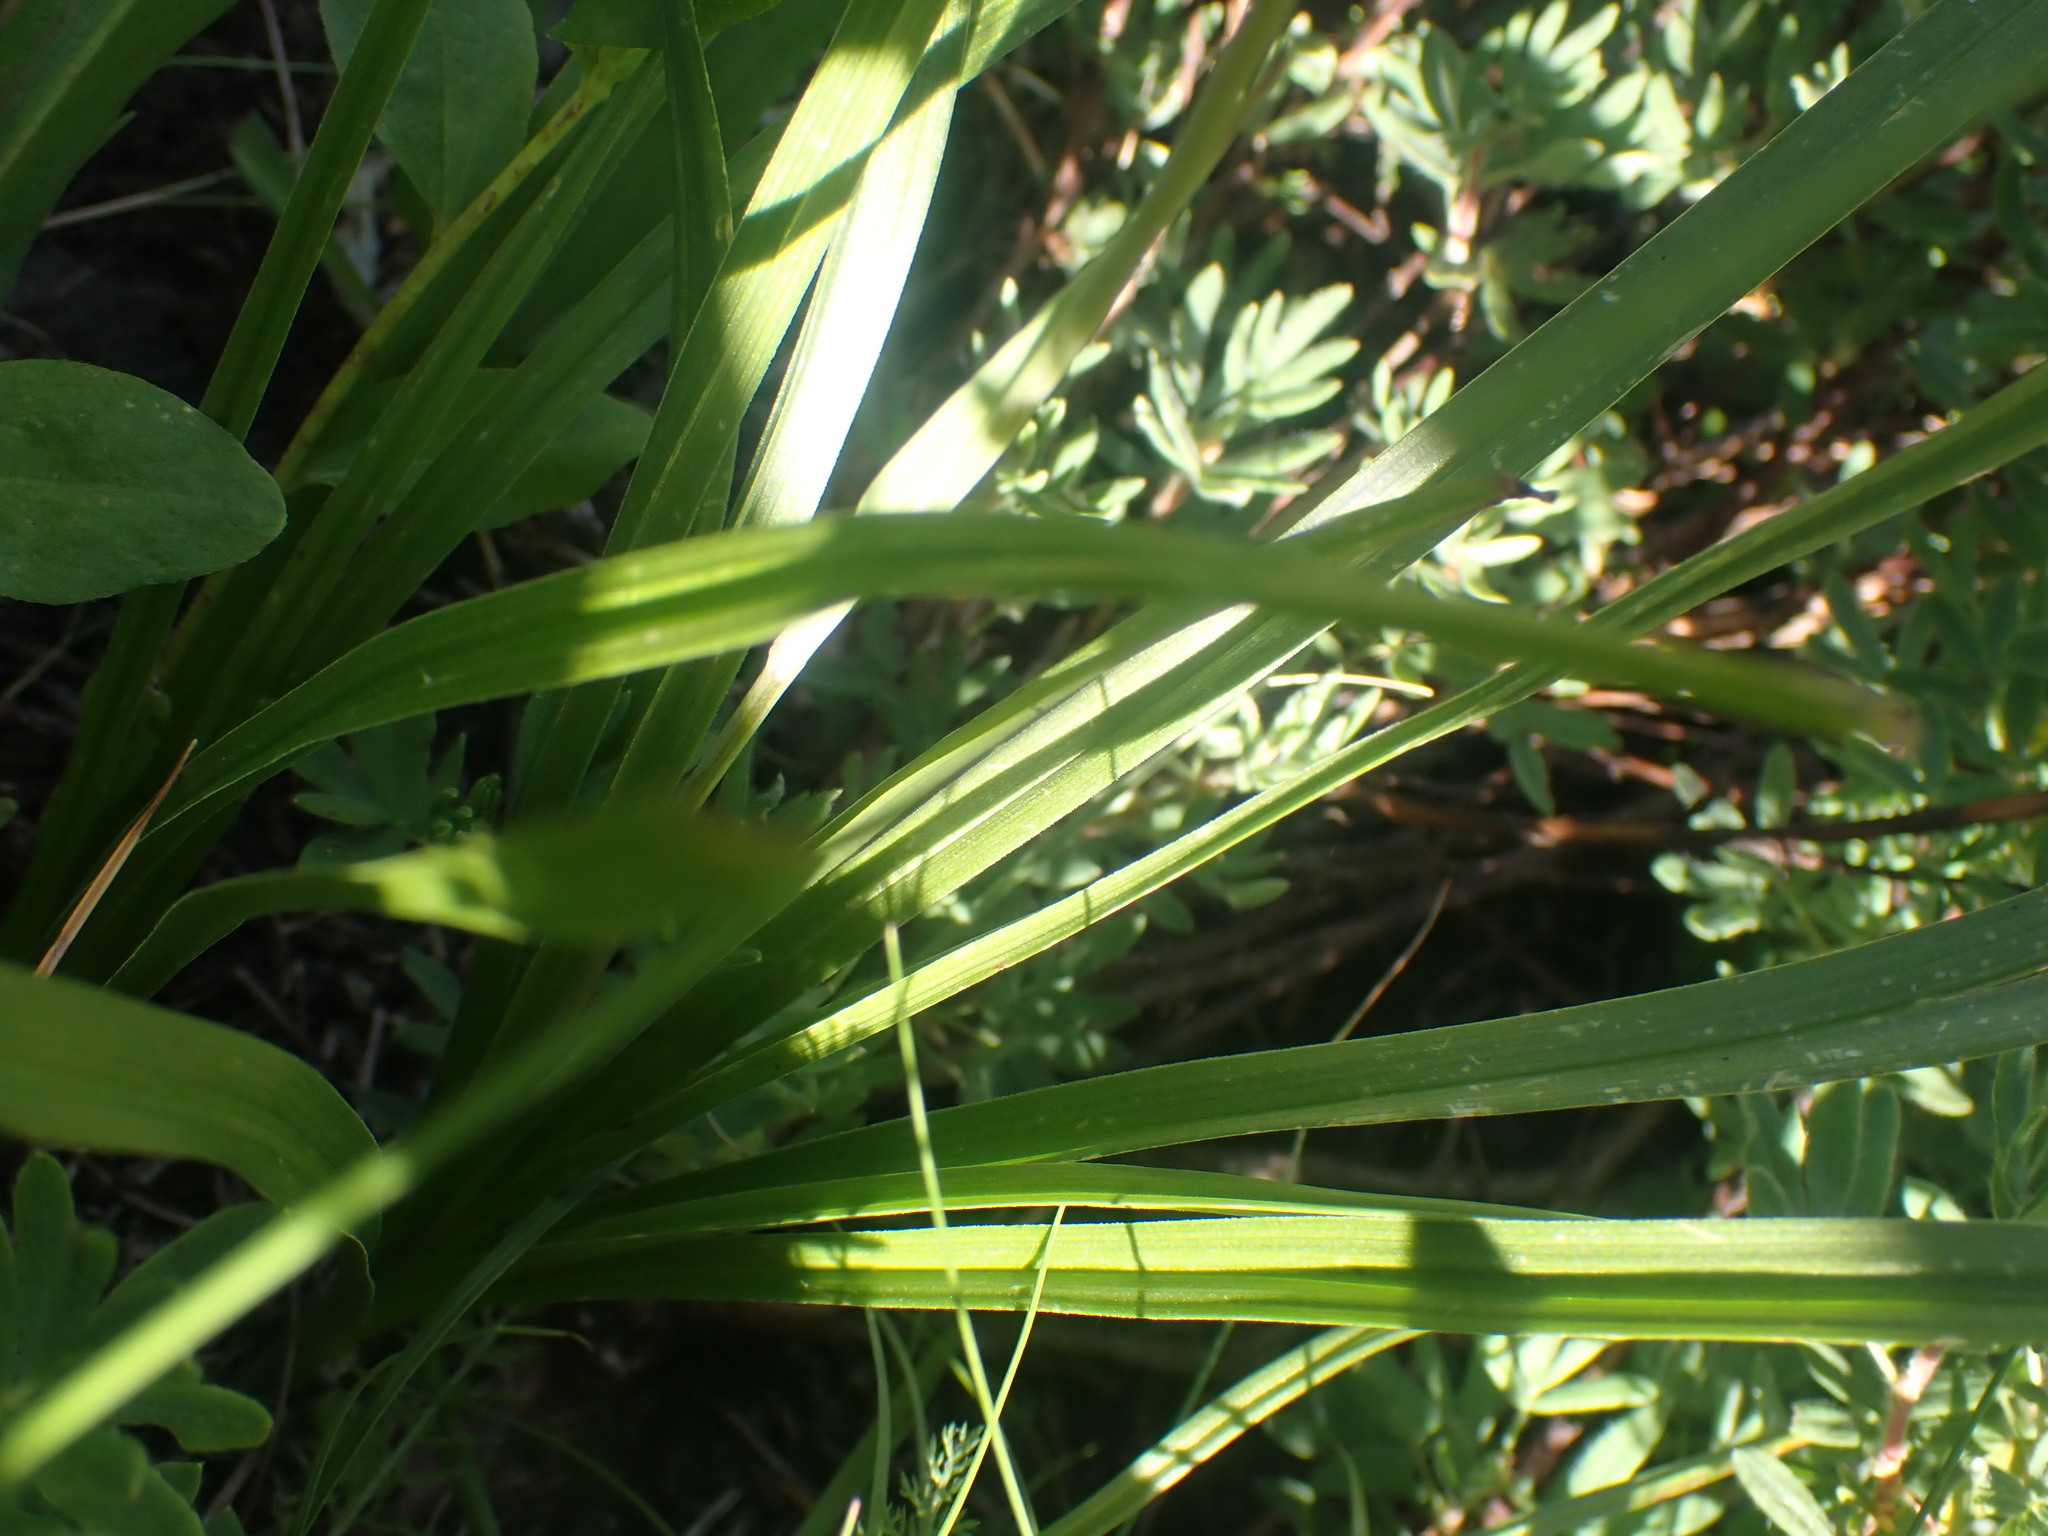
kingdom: Plantae
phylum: Tracheophyta
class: Liliopsida
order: Liliales
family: Melanthiaceae
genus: Anticlea
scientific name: Anticlea elegans
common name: Mountain death camas
